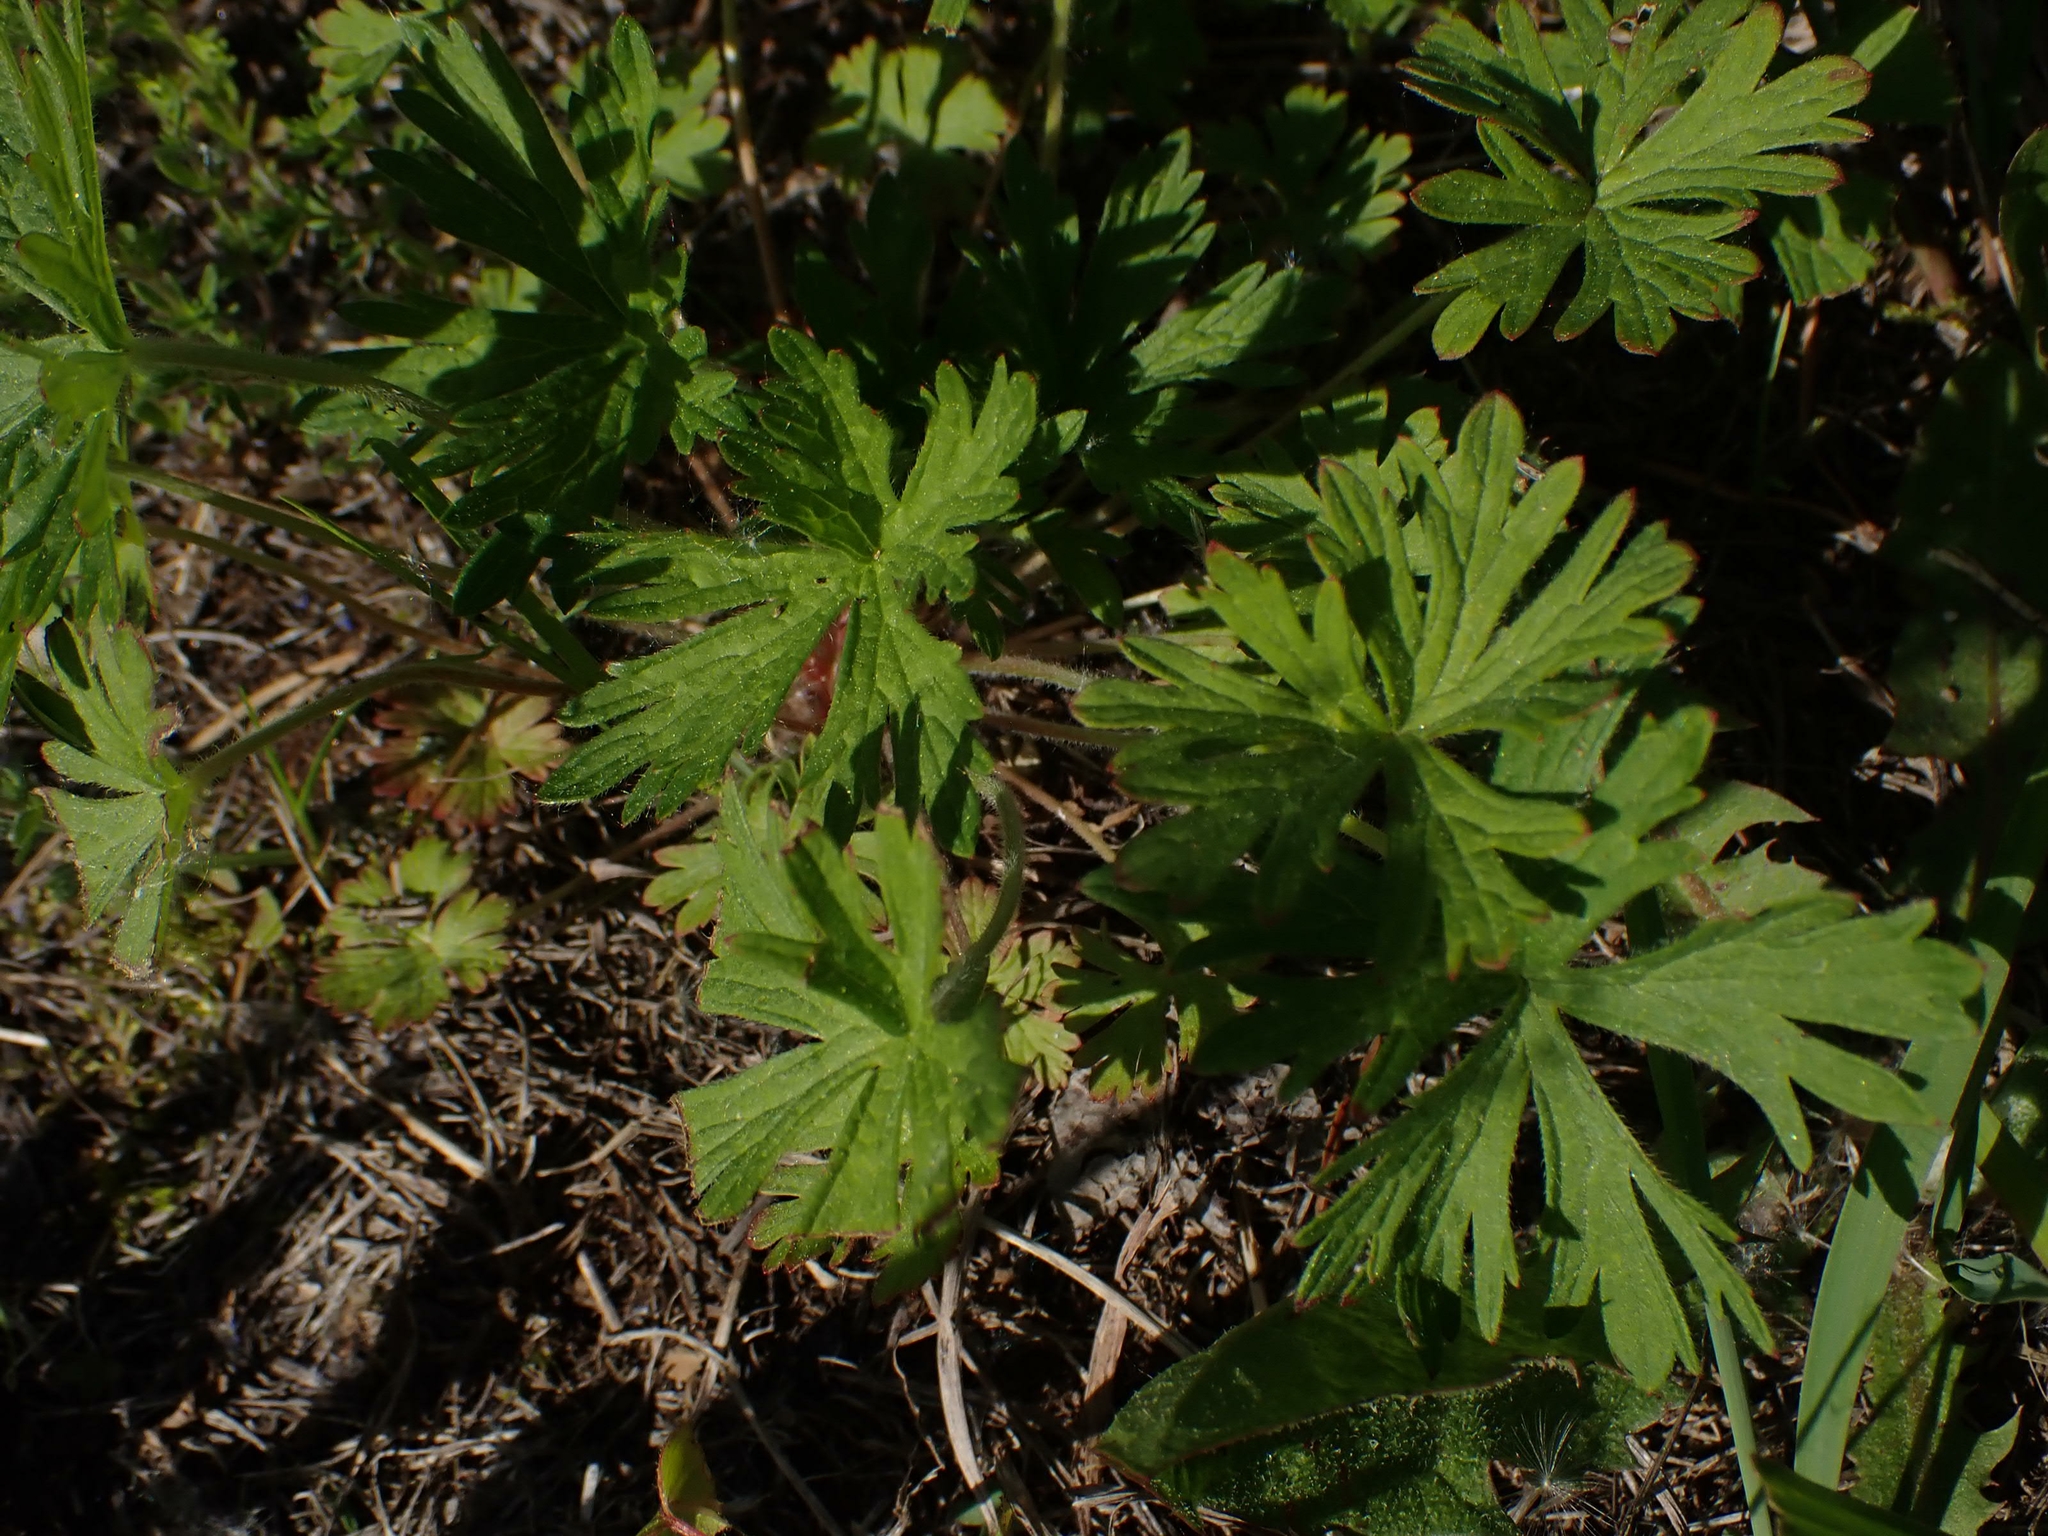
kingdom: Plantae
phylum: Tracheophyta
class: Magnoliopsida
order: Geraniales
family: Geraniaceae
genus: Geranium
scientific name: Geranium bicknellii
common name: Bicknell's cranesbill
